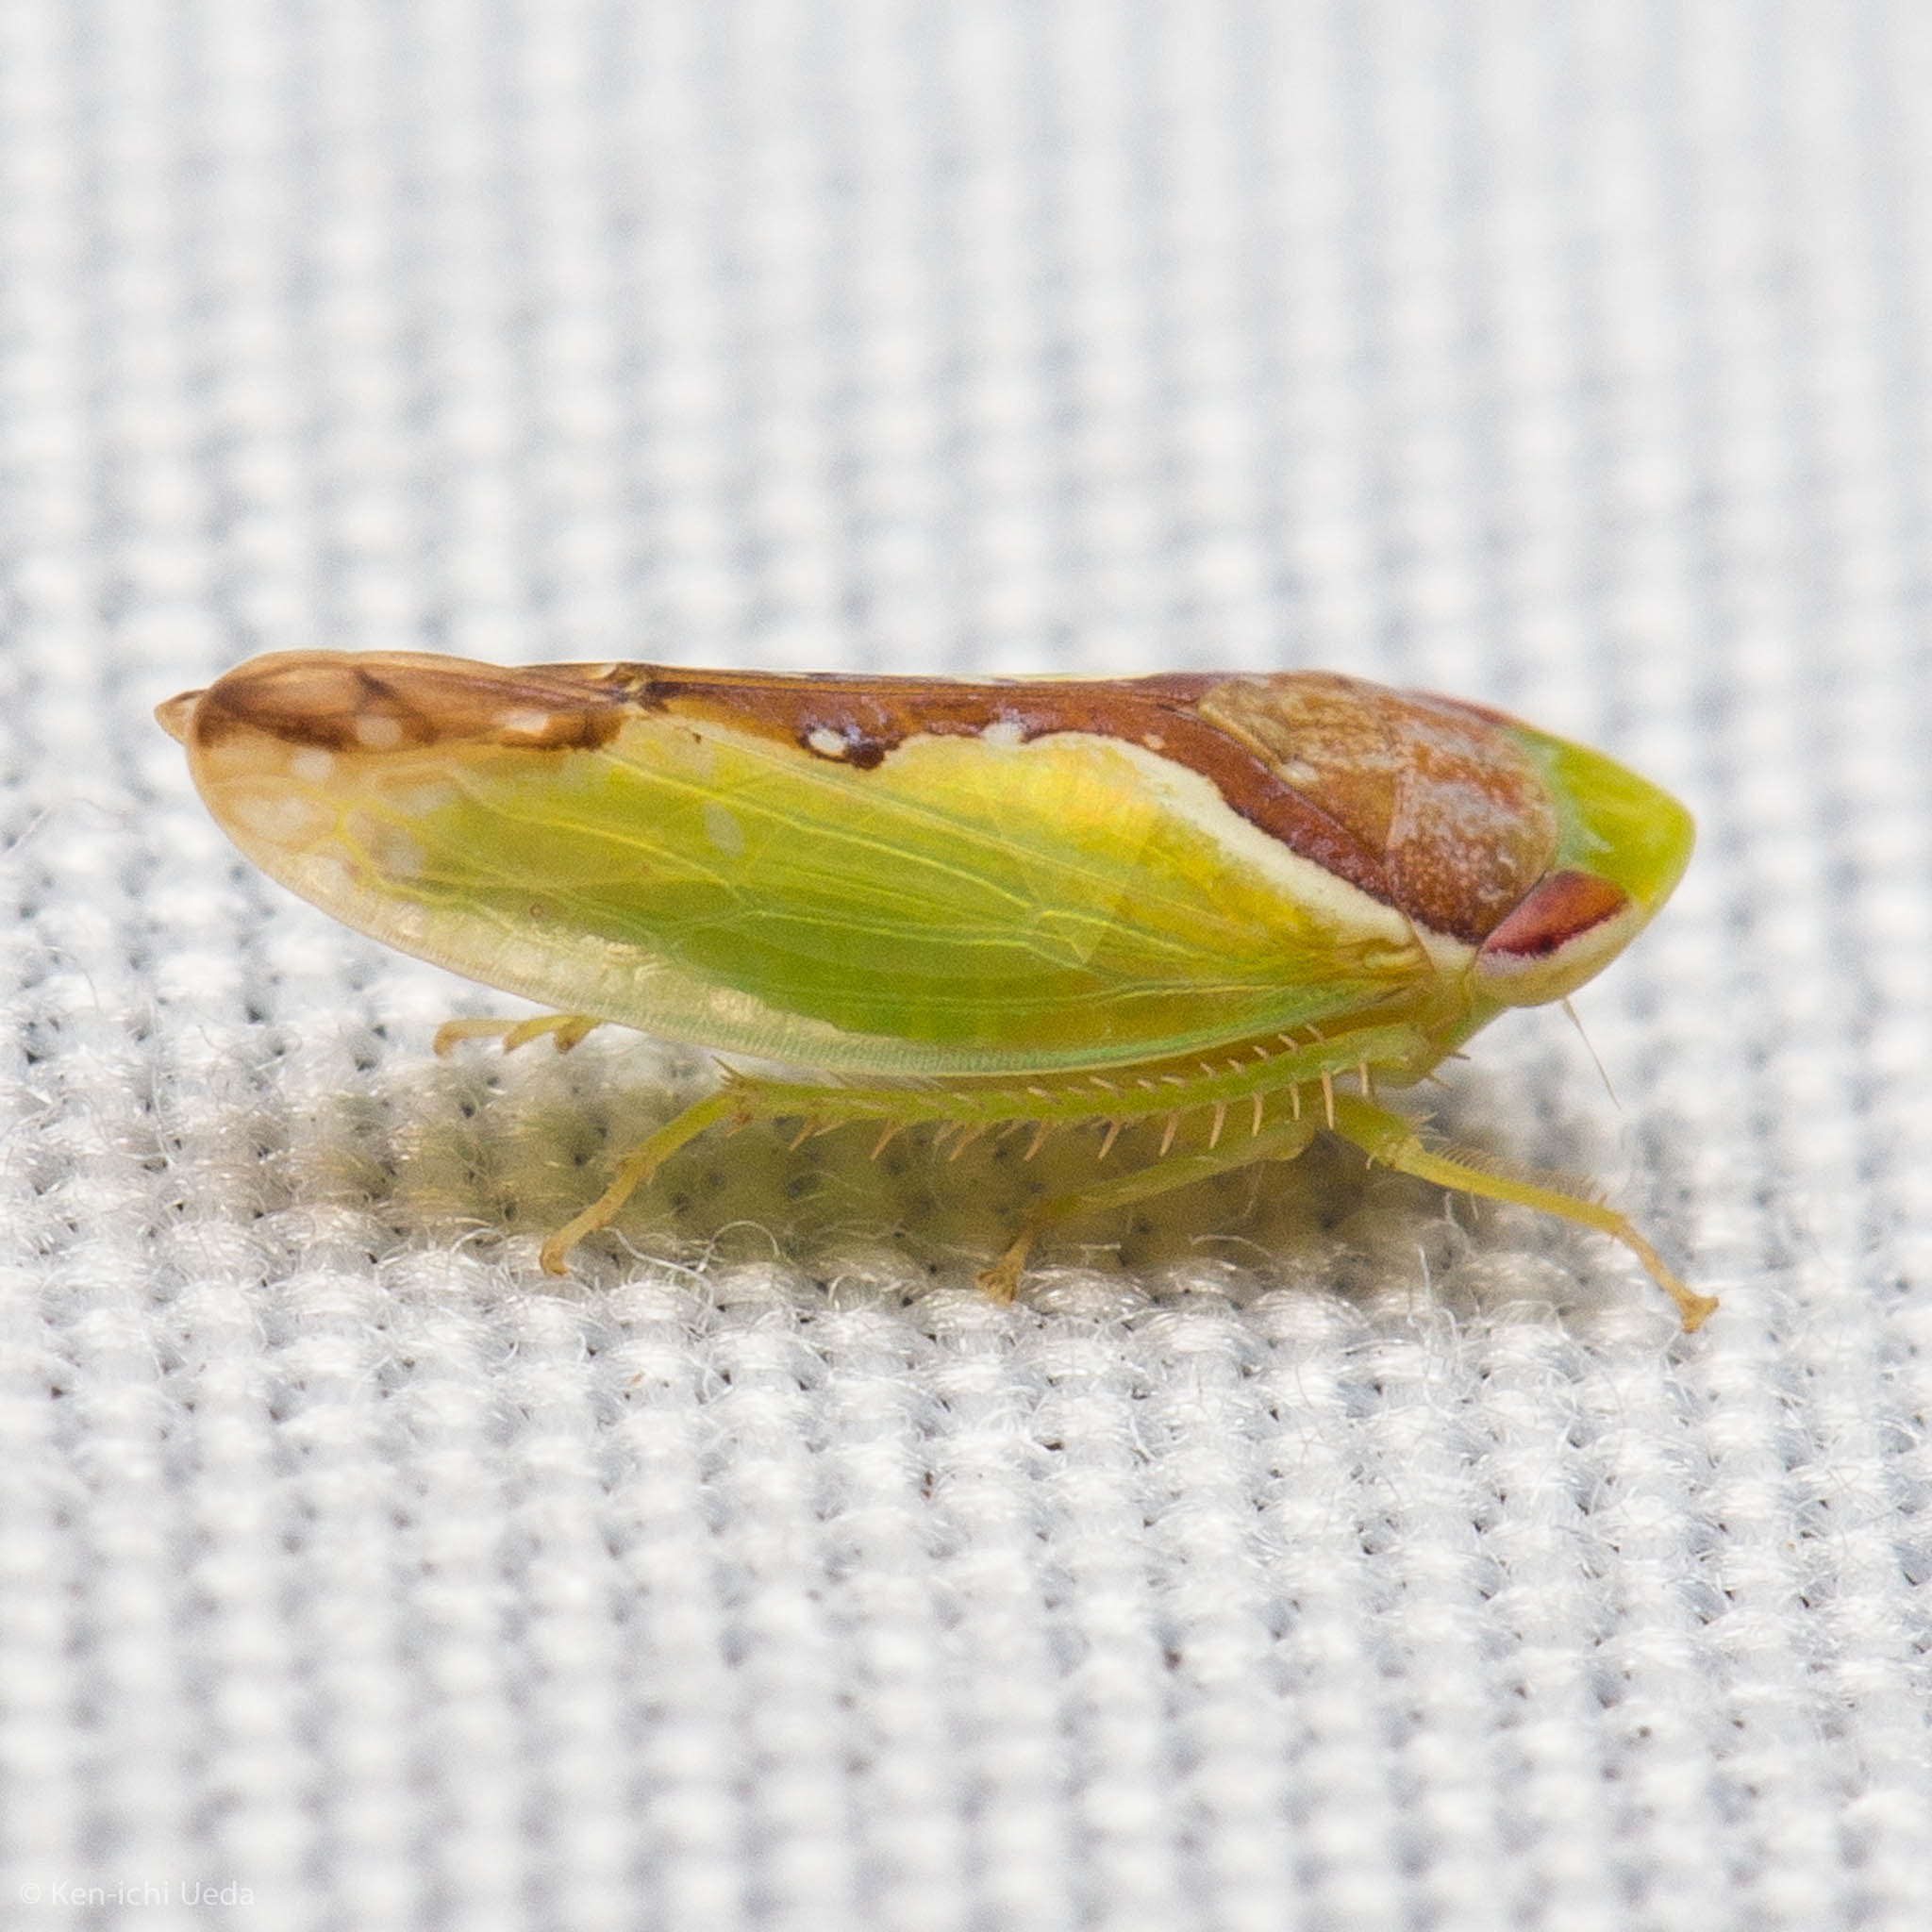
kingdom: Animalia
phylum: Arthropoda
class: Insecta
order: Hemiptera
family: Cicadellidae
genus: Omansobara ing
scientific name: Omansobara ing Omansobara palliolata
